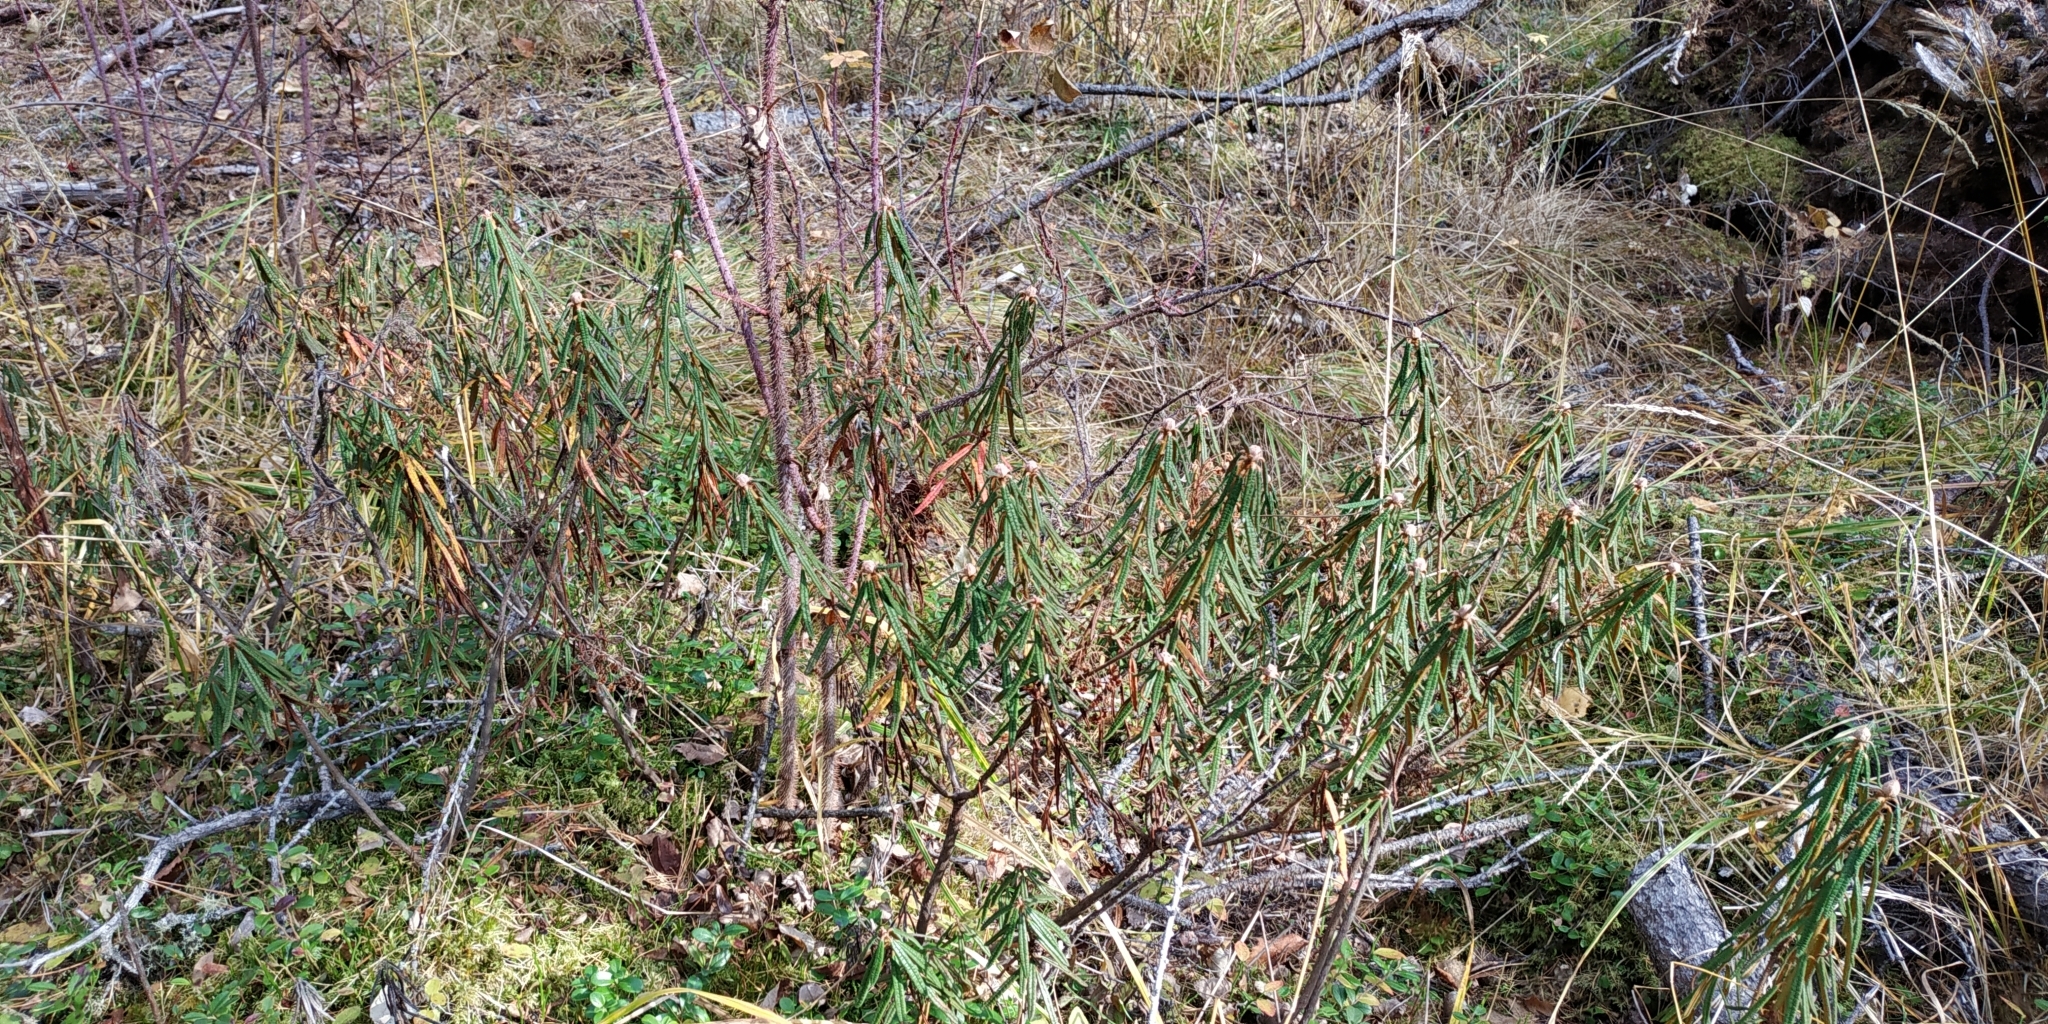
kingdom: Plantae
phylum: Tracheophyta
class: Magnoliopsida
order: Ericales
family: Ericaceae
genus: Rhododendron
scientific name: Rhododendron tomentosum
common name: Marsh labrador tea
